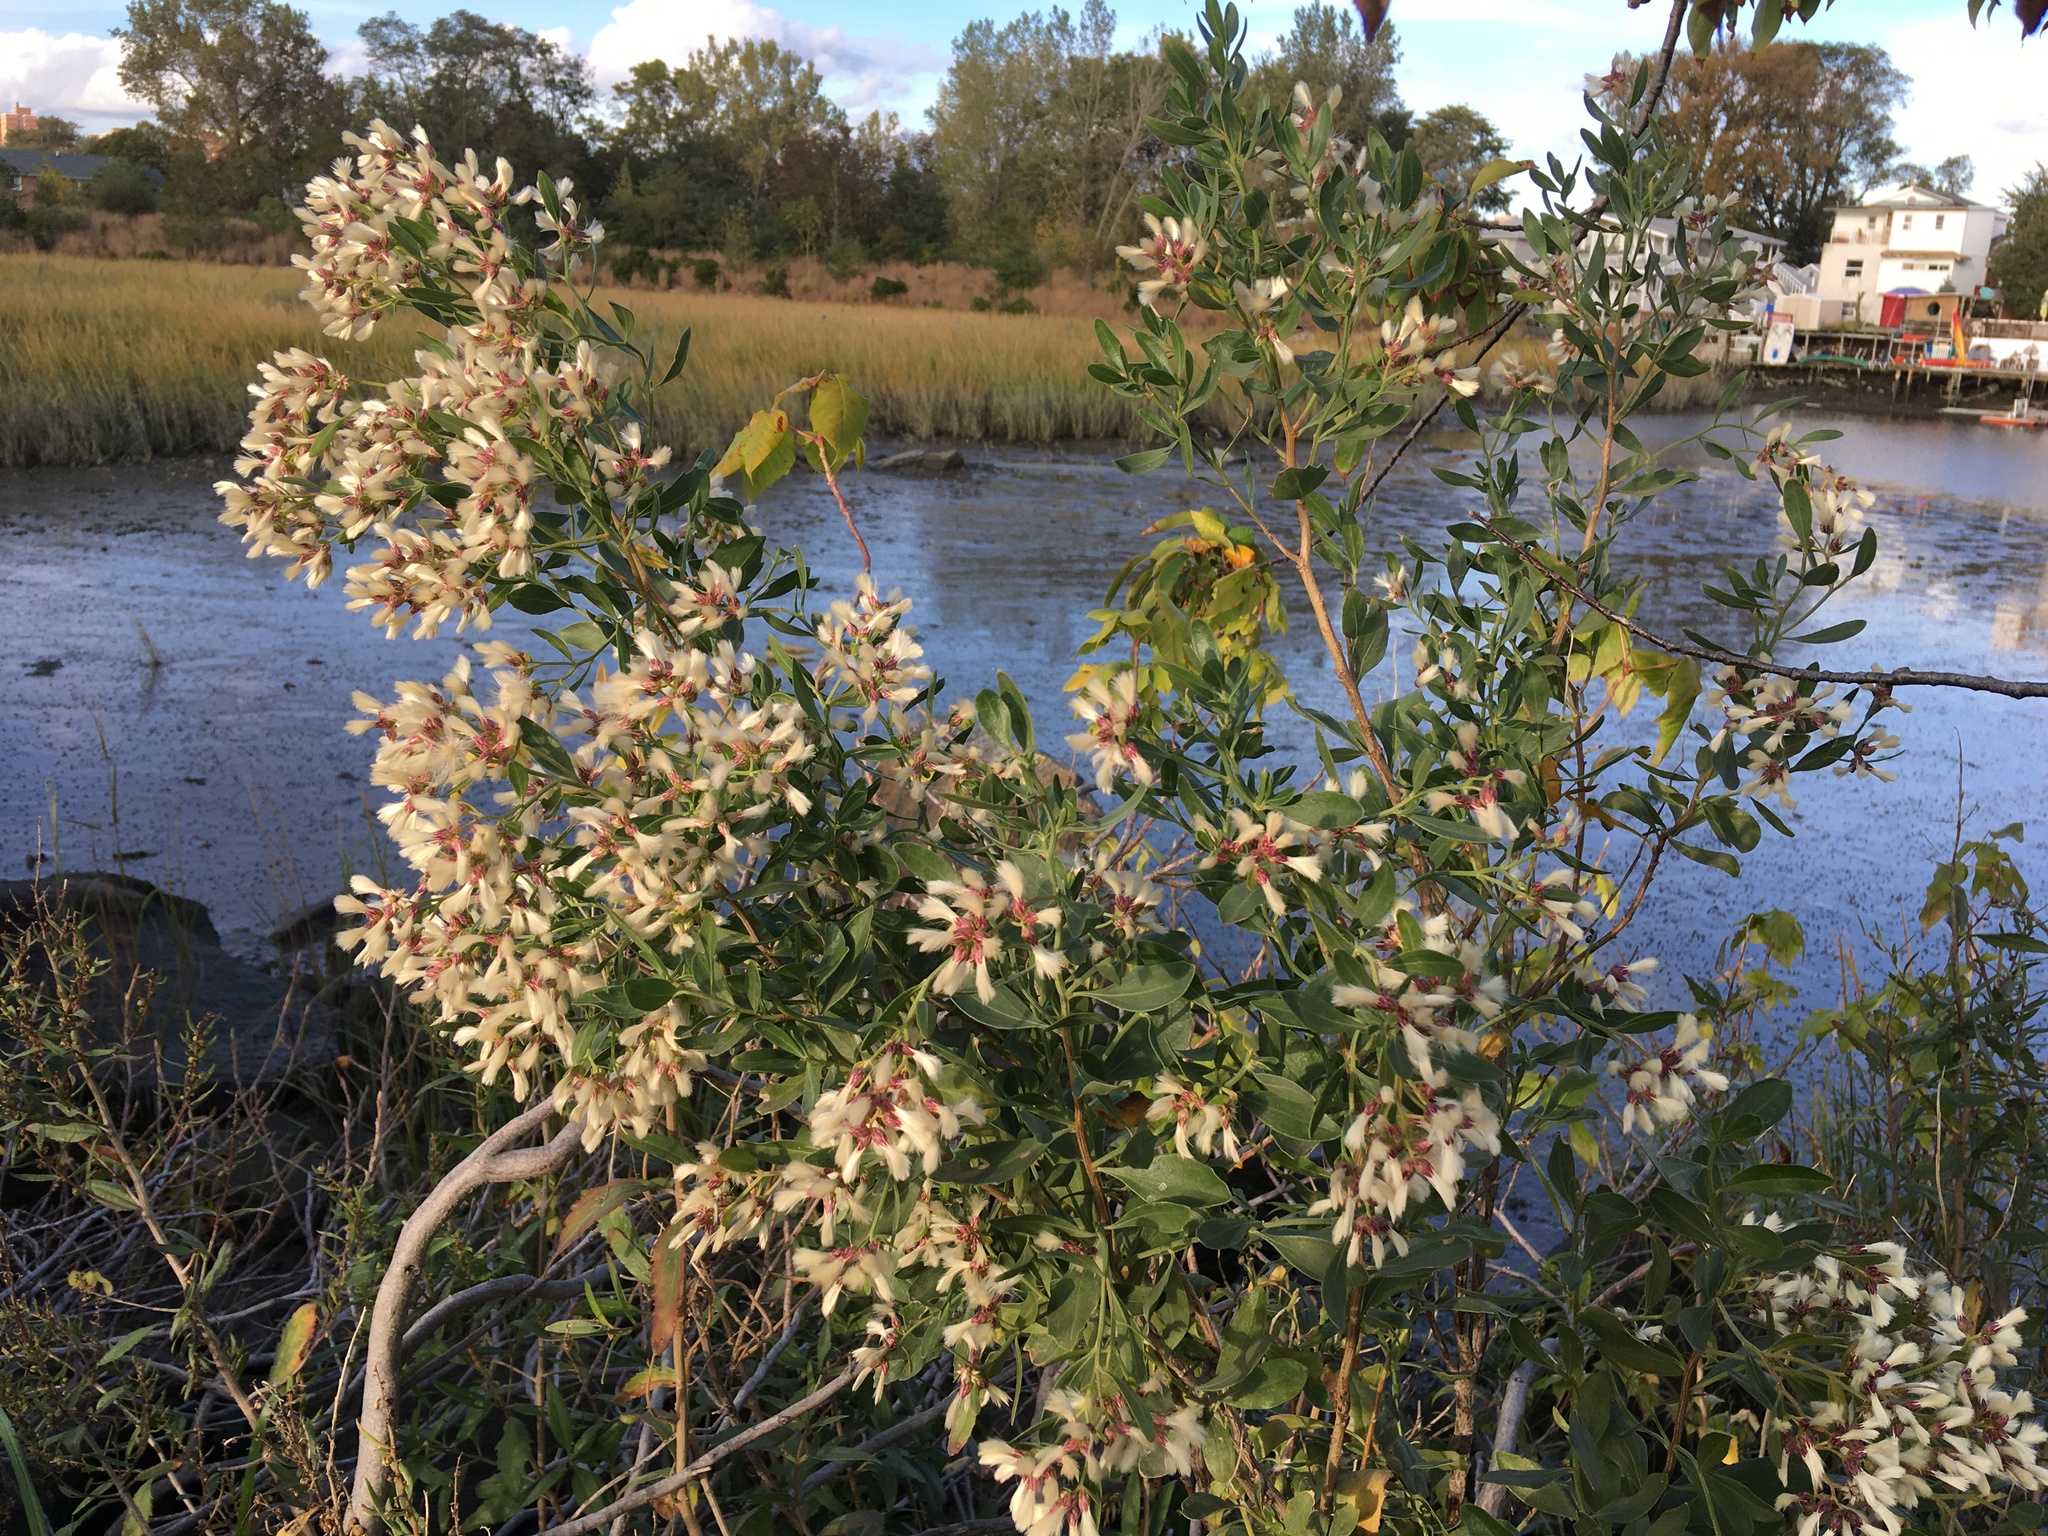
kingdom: Plantae
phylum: Tracheophyta
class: Magnoliopsida
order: Asterales
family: Asteraceae
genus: Baccharis
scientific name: Baccharis halimifolia
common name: Eastern baccharis
